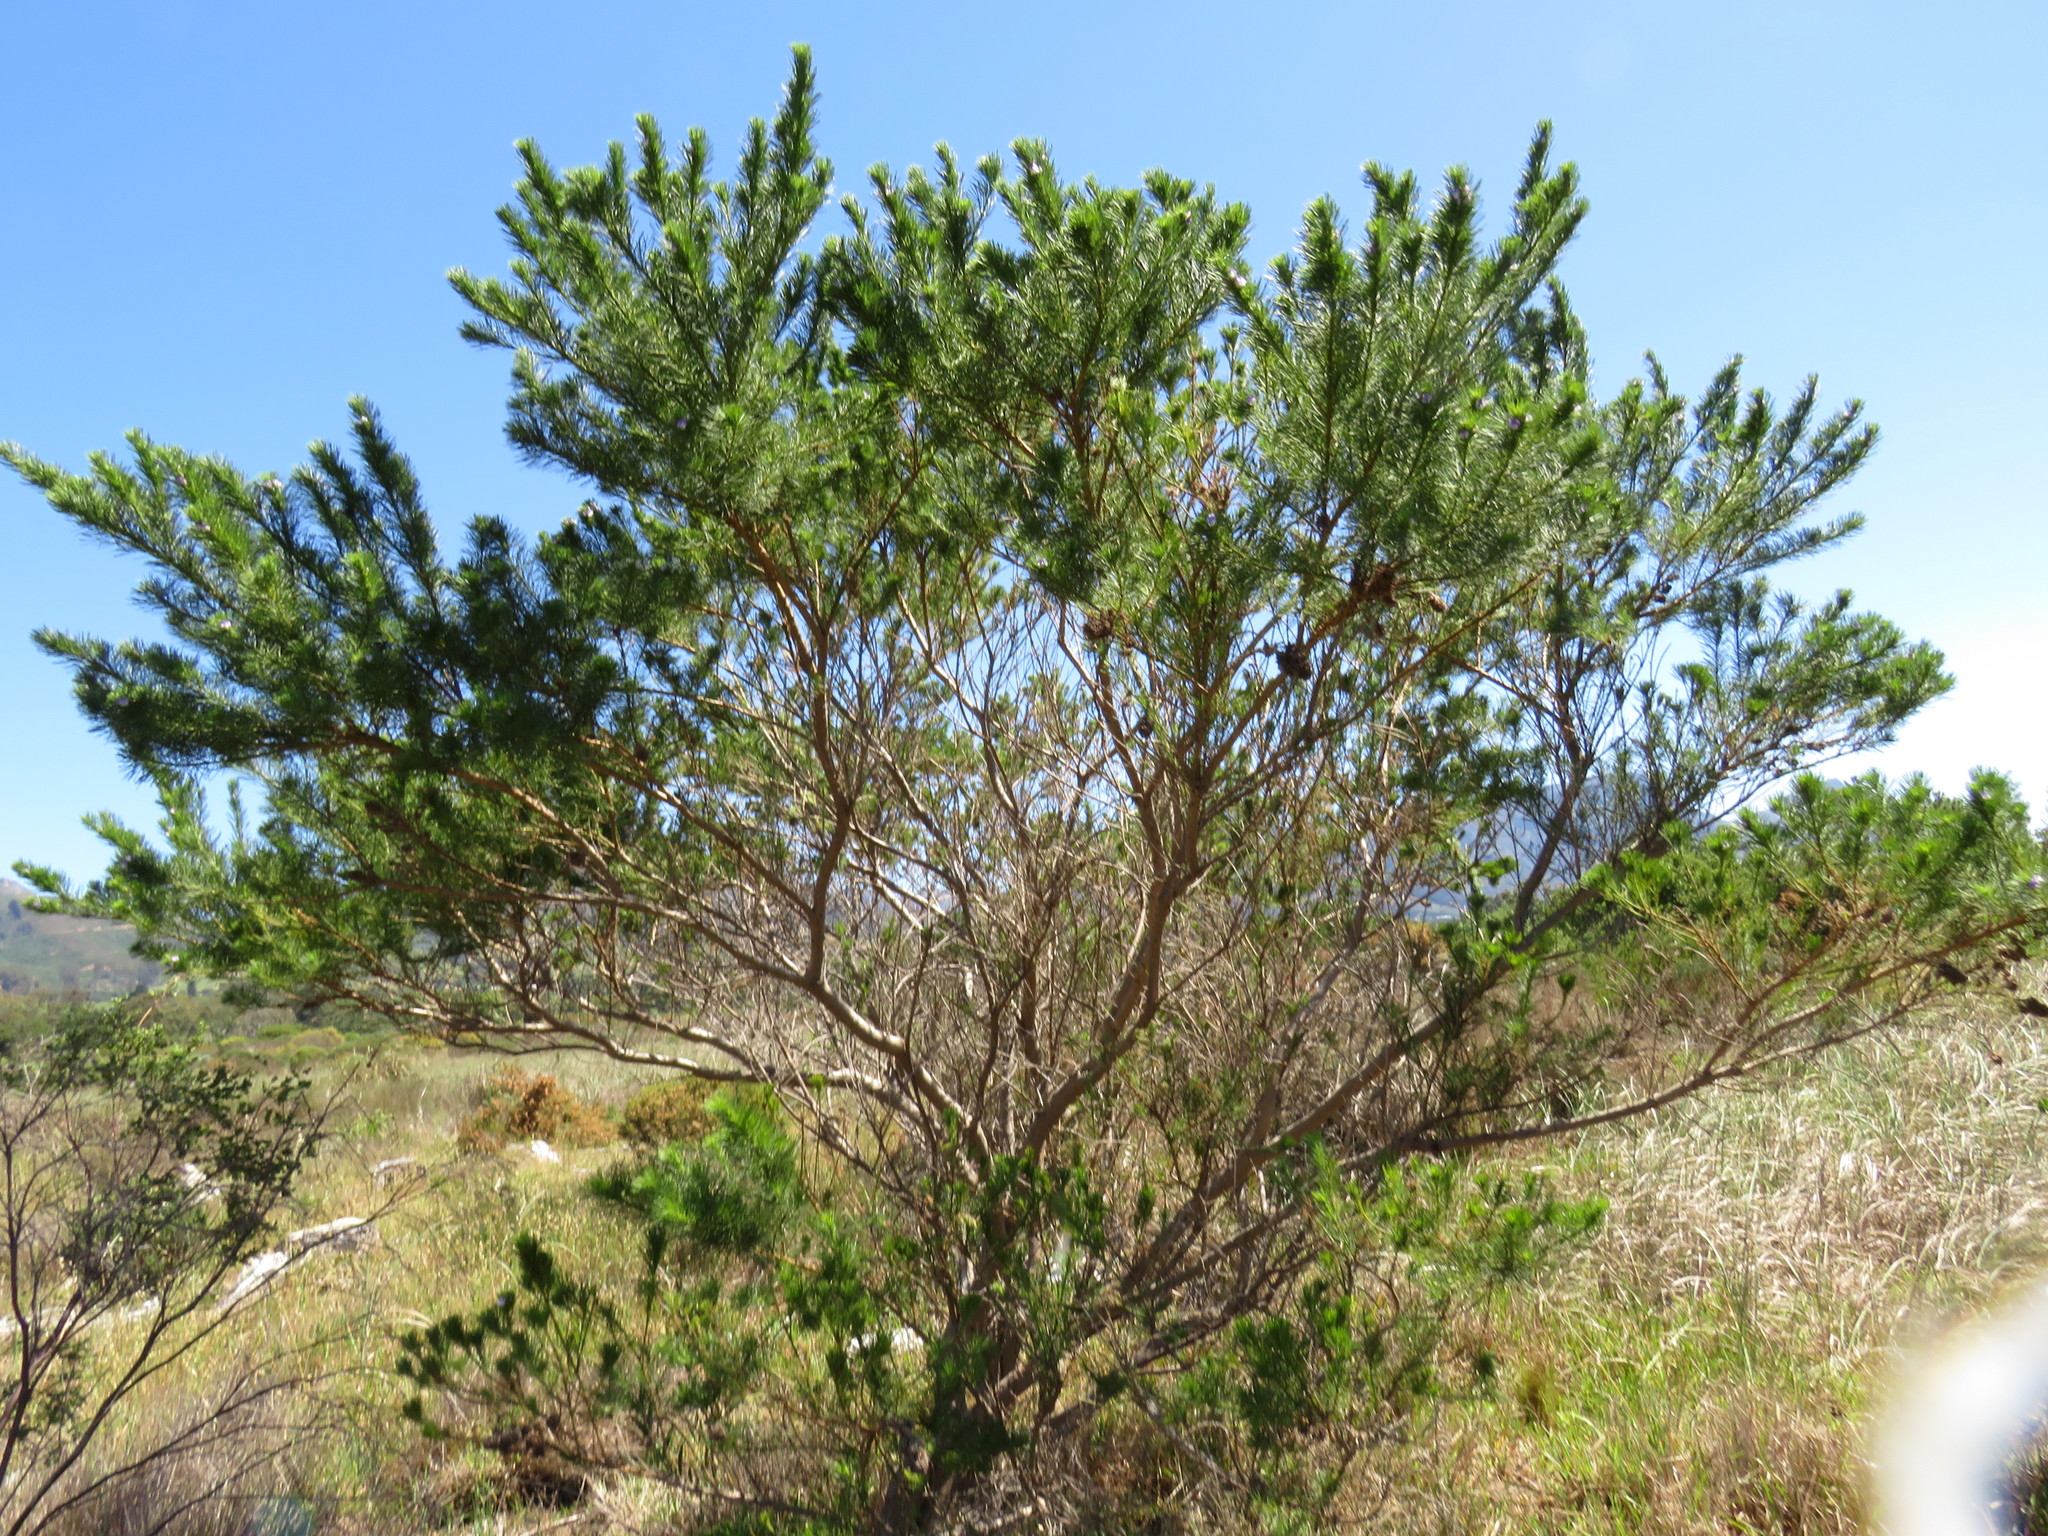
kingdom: Plantae
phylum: Tracheophyta
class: Magnoliopsida
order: Fabales
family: Fabaceae
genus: Psoralea
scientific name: Psoralea pinnata
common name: African scurfpea
